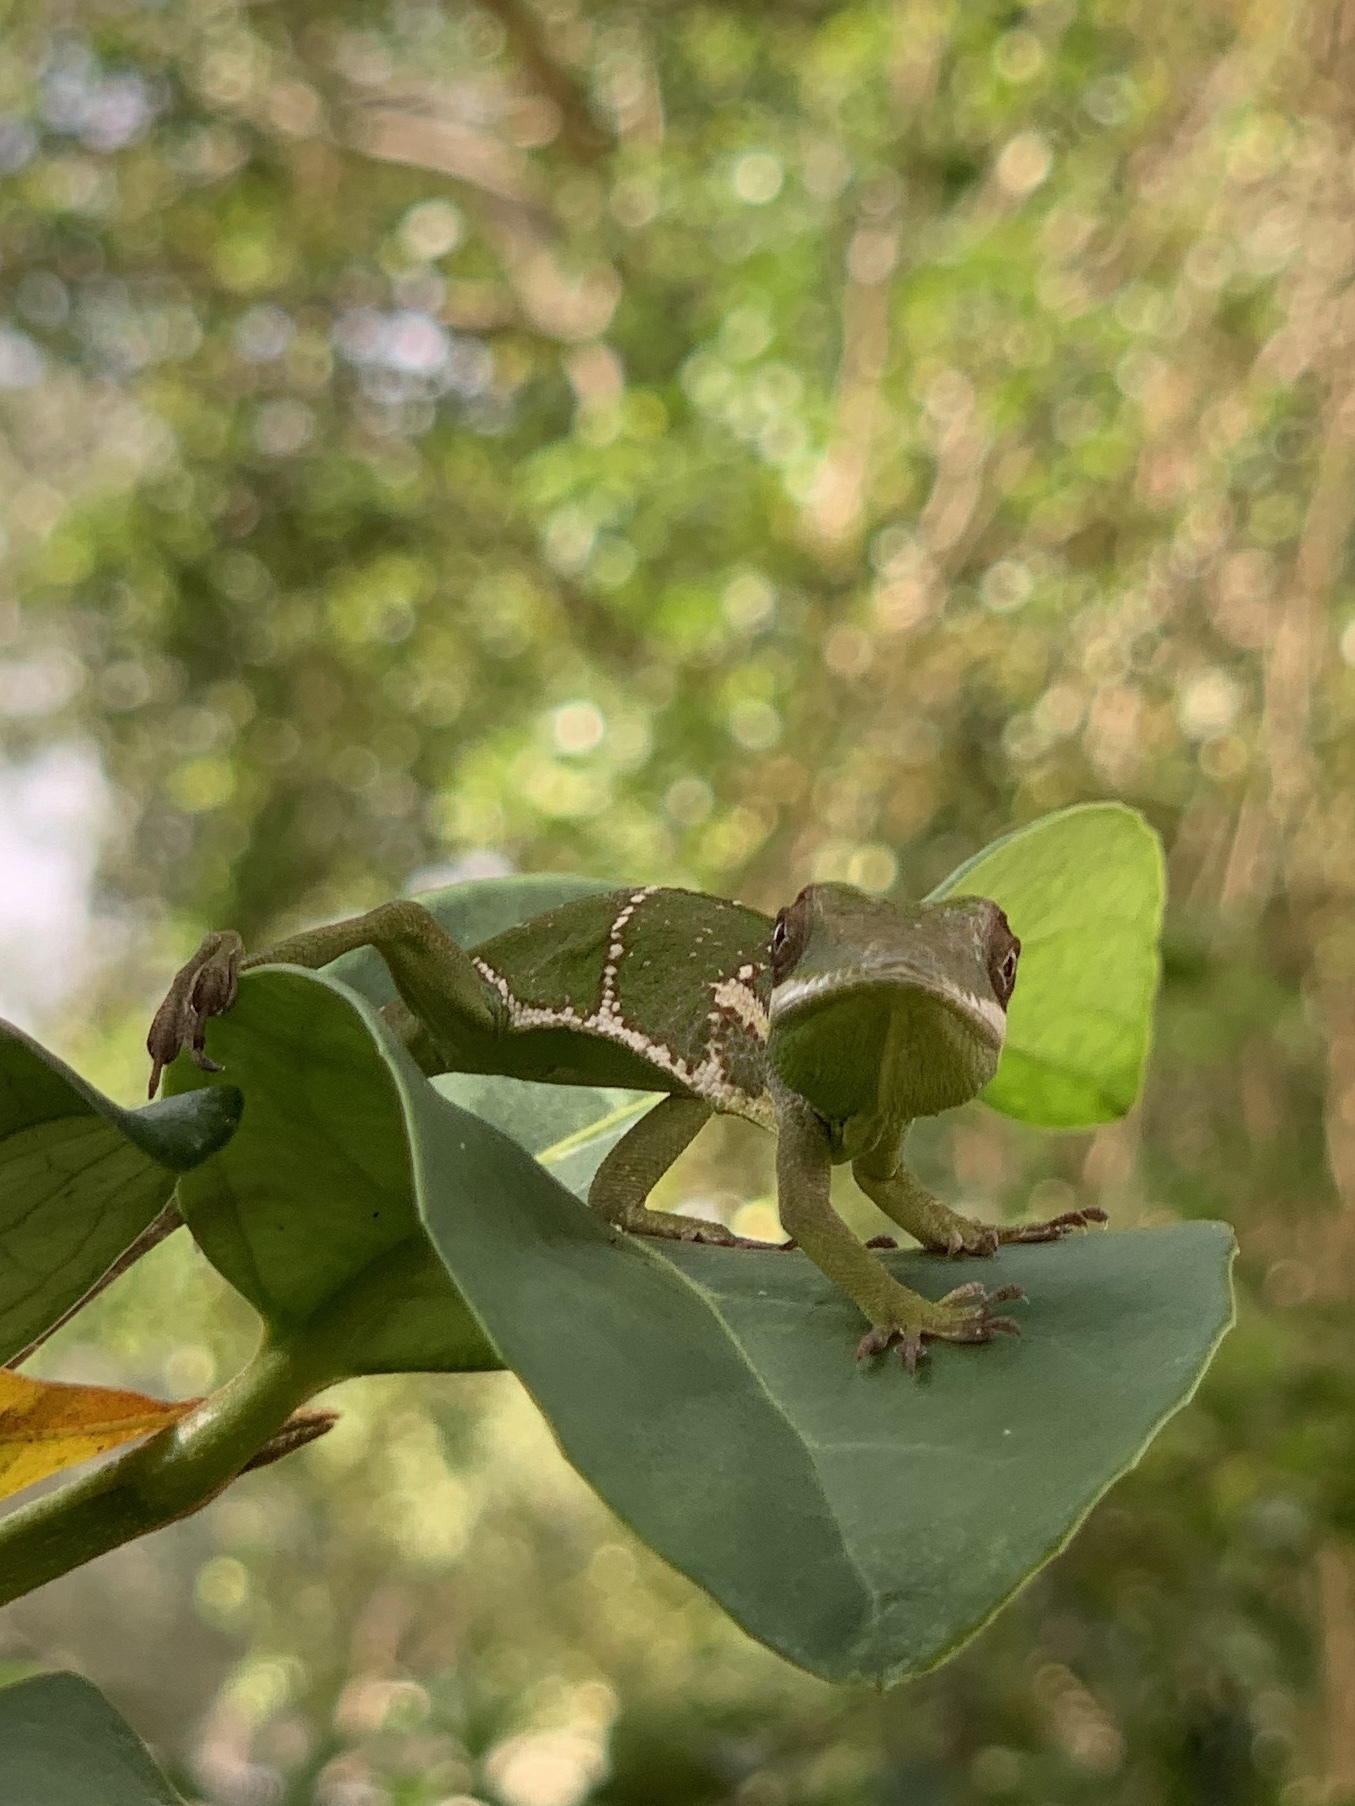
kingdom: Animalia
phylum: Chordata
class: Squamata
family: Dactyloidae
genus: Anolis
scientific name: Anolis equestris
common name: Knight anole
